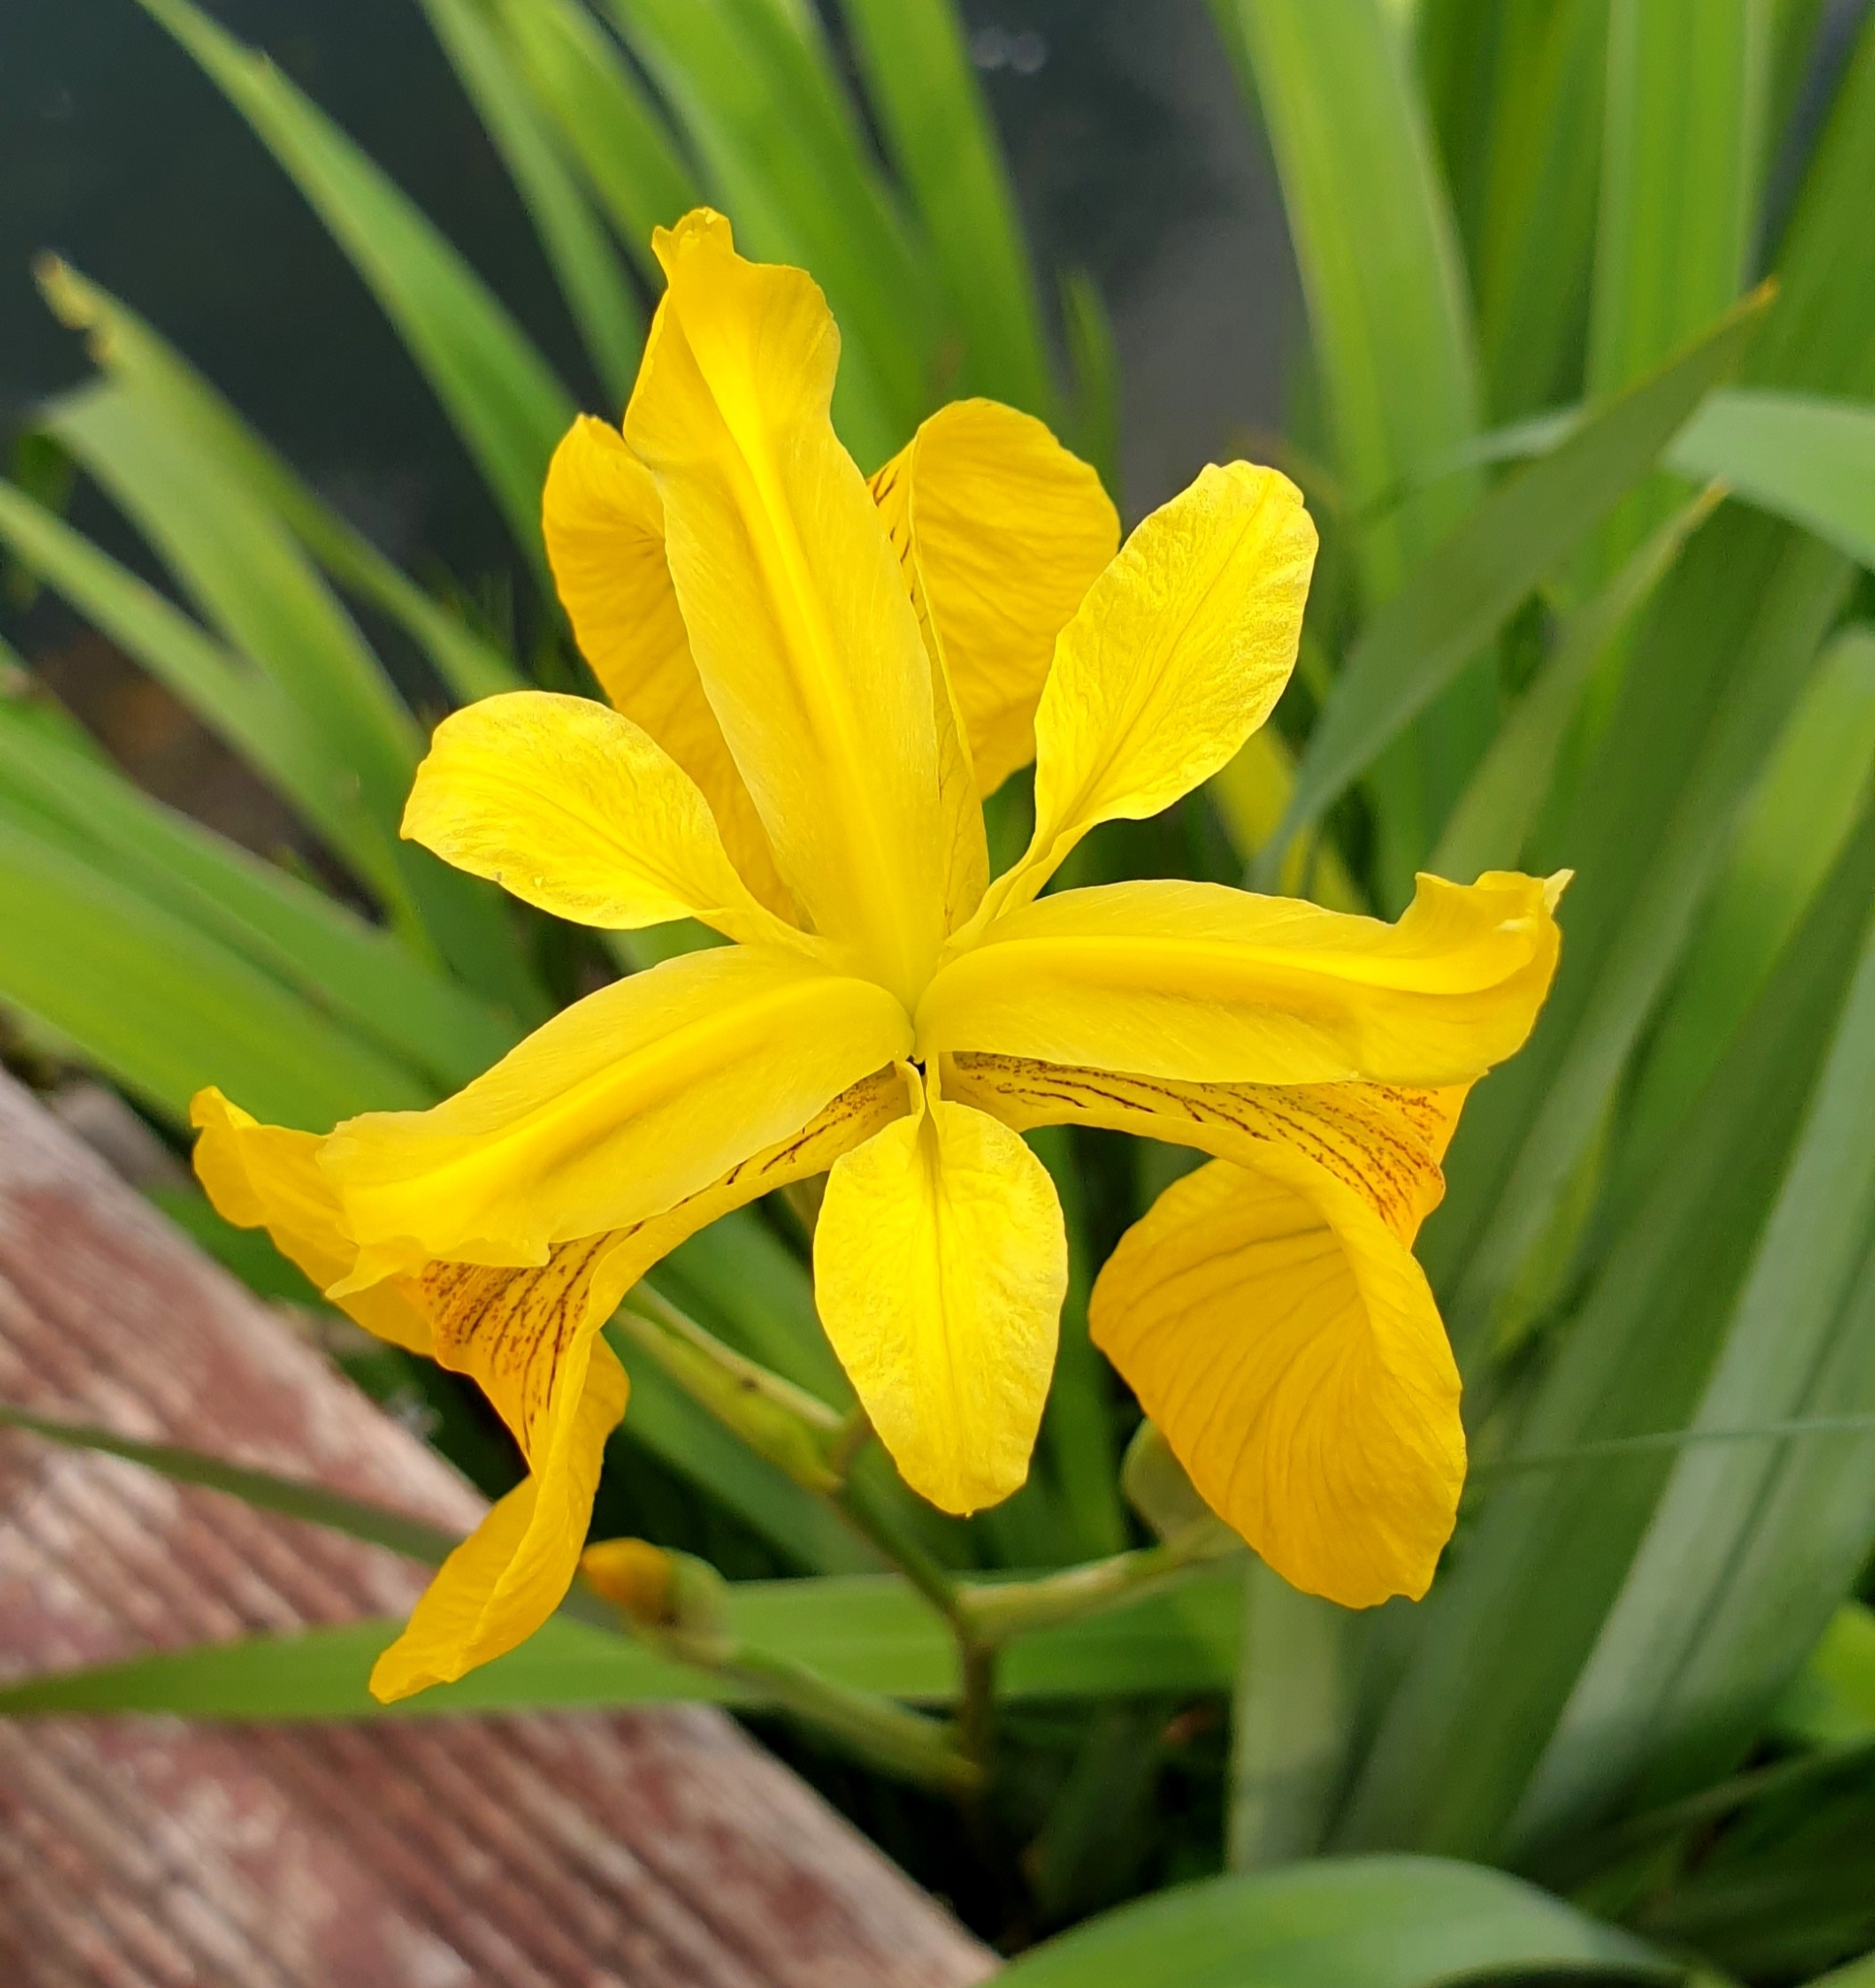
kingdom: Plantae
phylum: Tracheophyta
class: Liliopsida
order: Asparagales
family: Iridaceae
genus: Iris
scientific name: Iris pseudacorus
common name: Yellow flag
